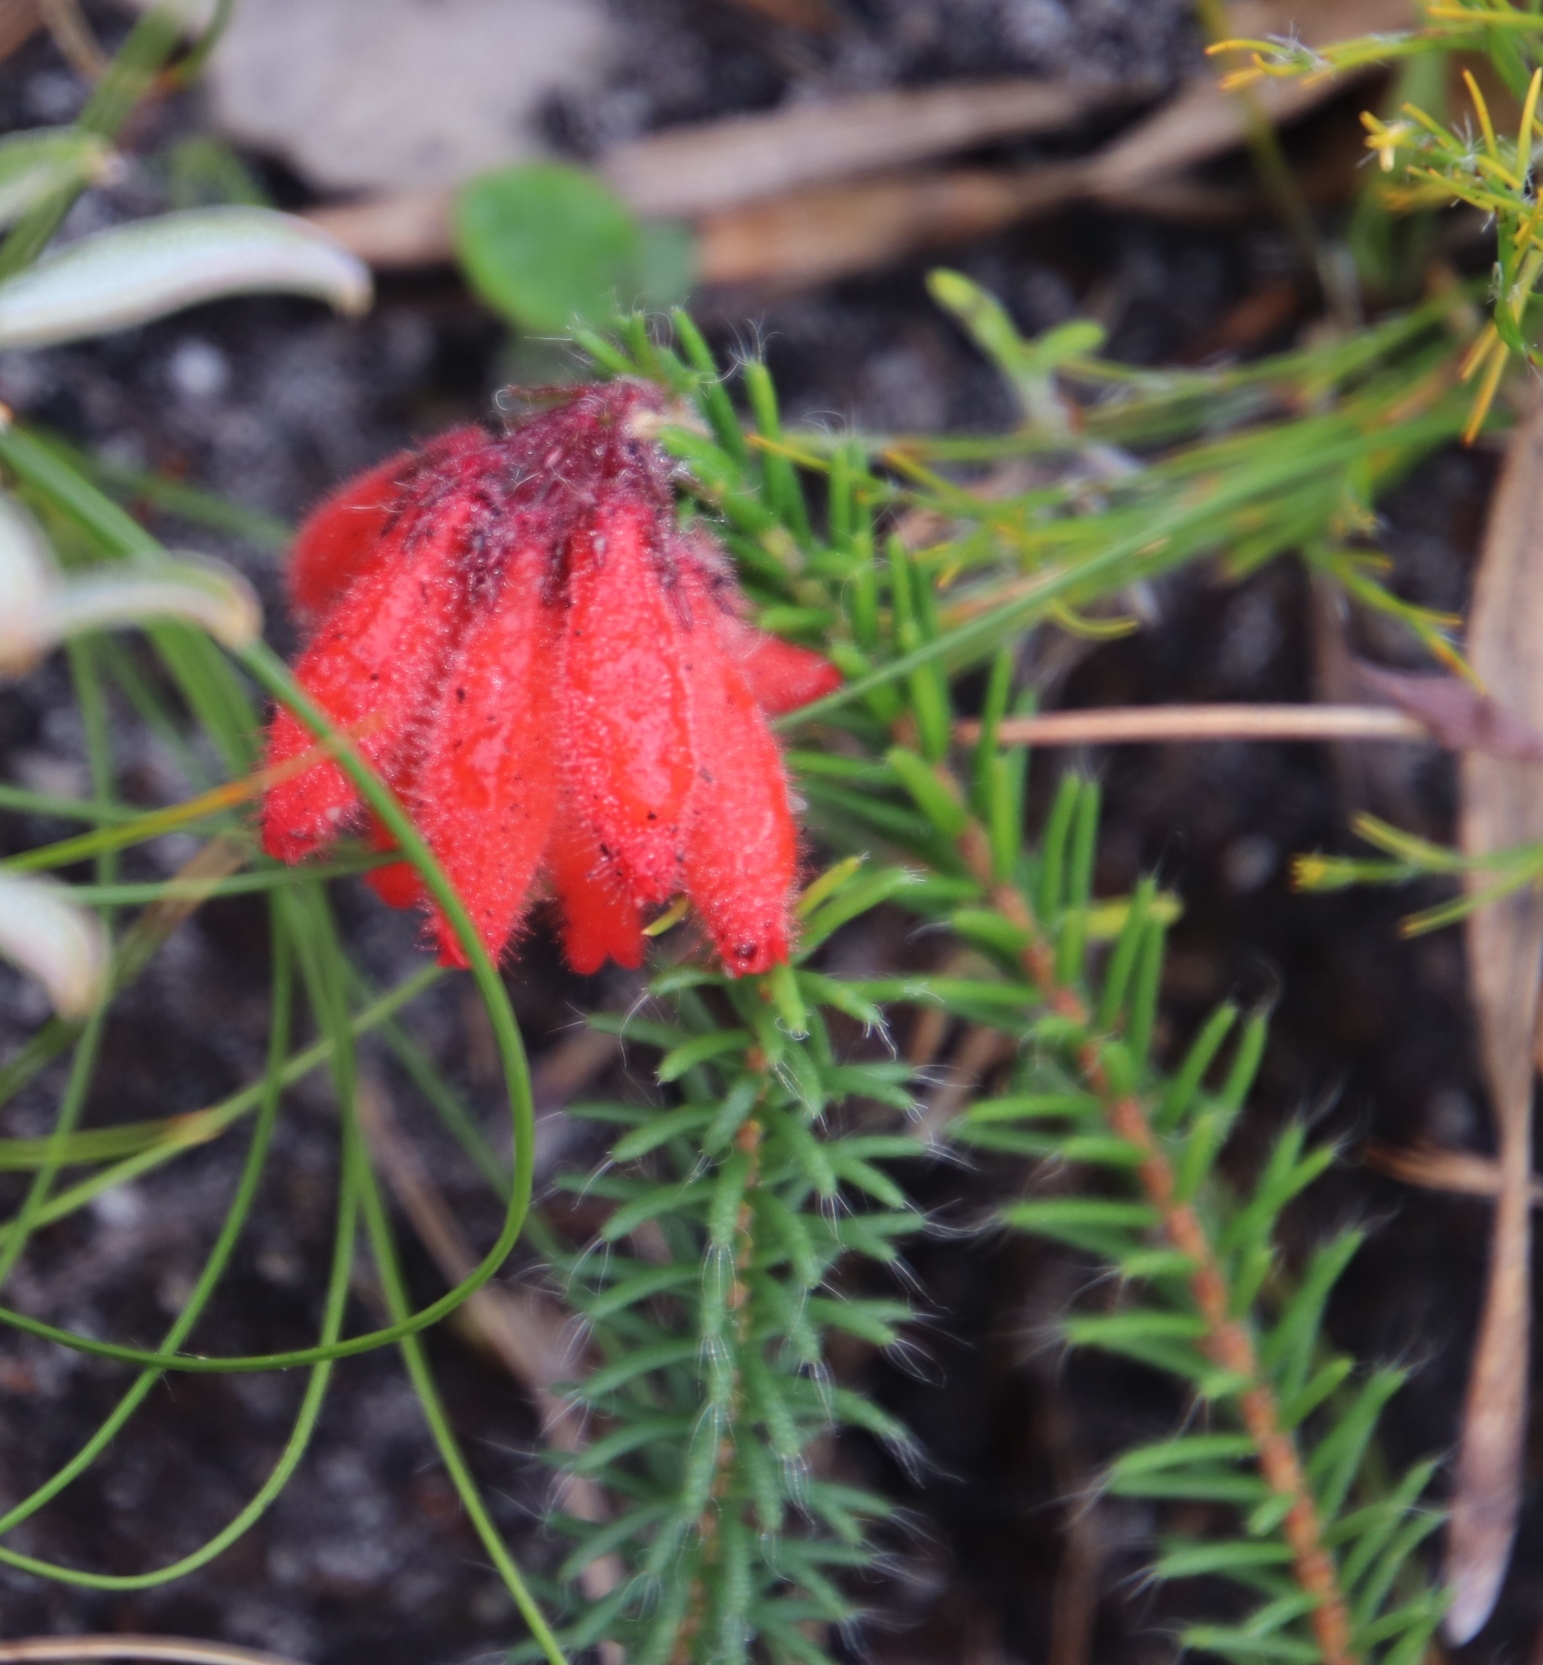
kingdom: Plantae
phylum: Tracheophyta
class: Magnoliopsida
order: Ericales
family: Ericaceae
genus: Erica
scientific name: Erica cerinthoides
